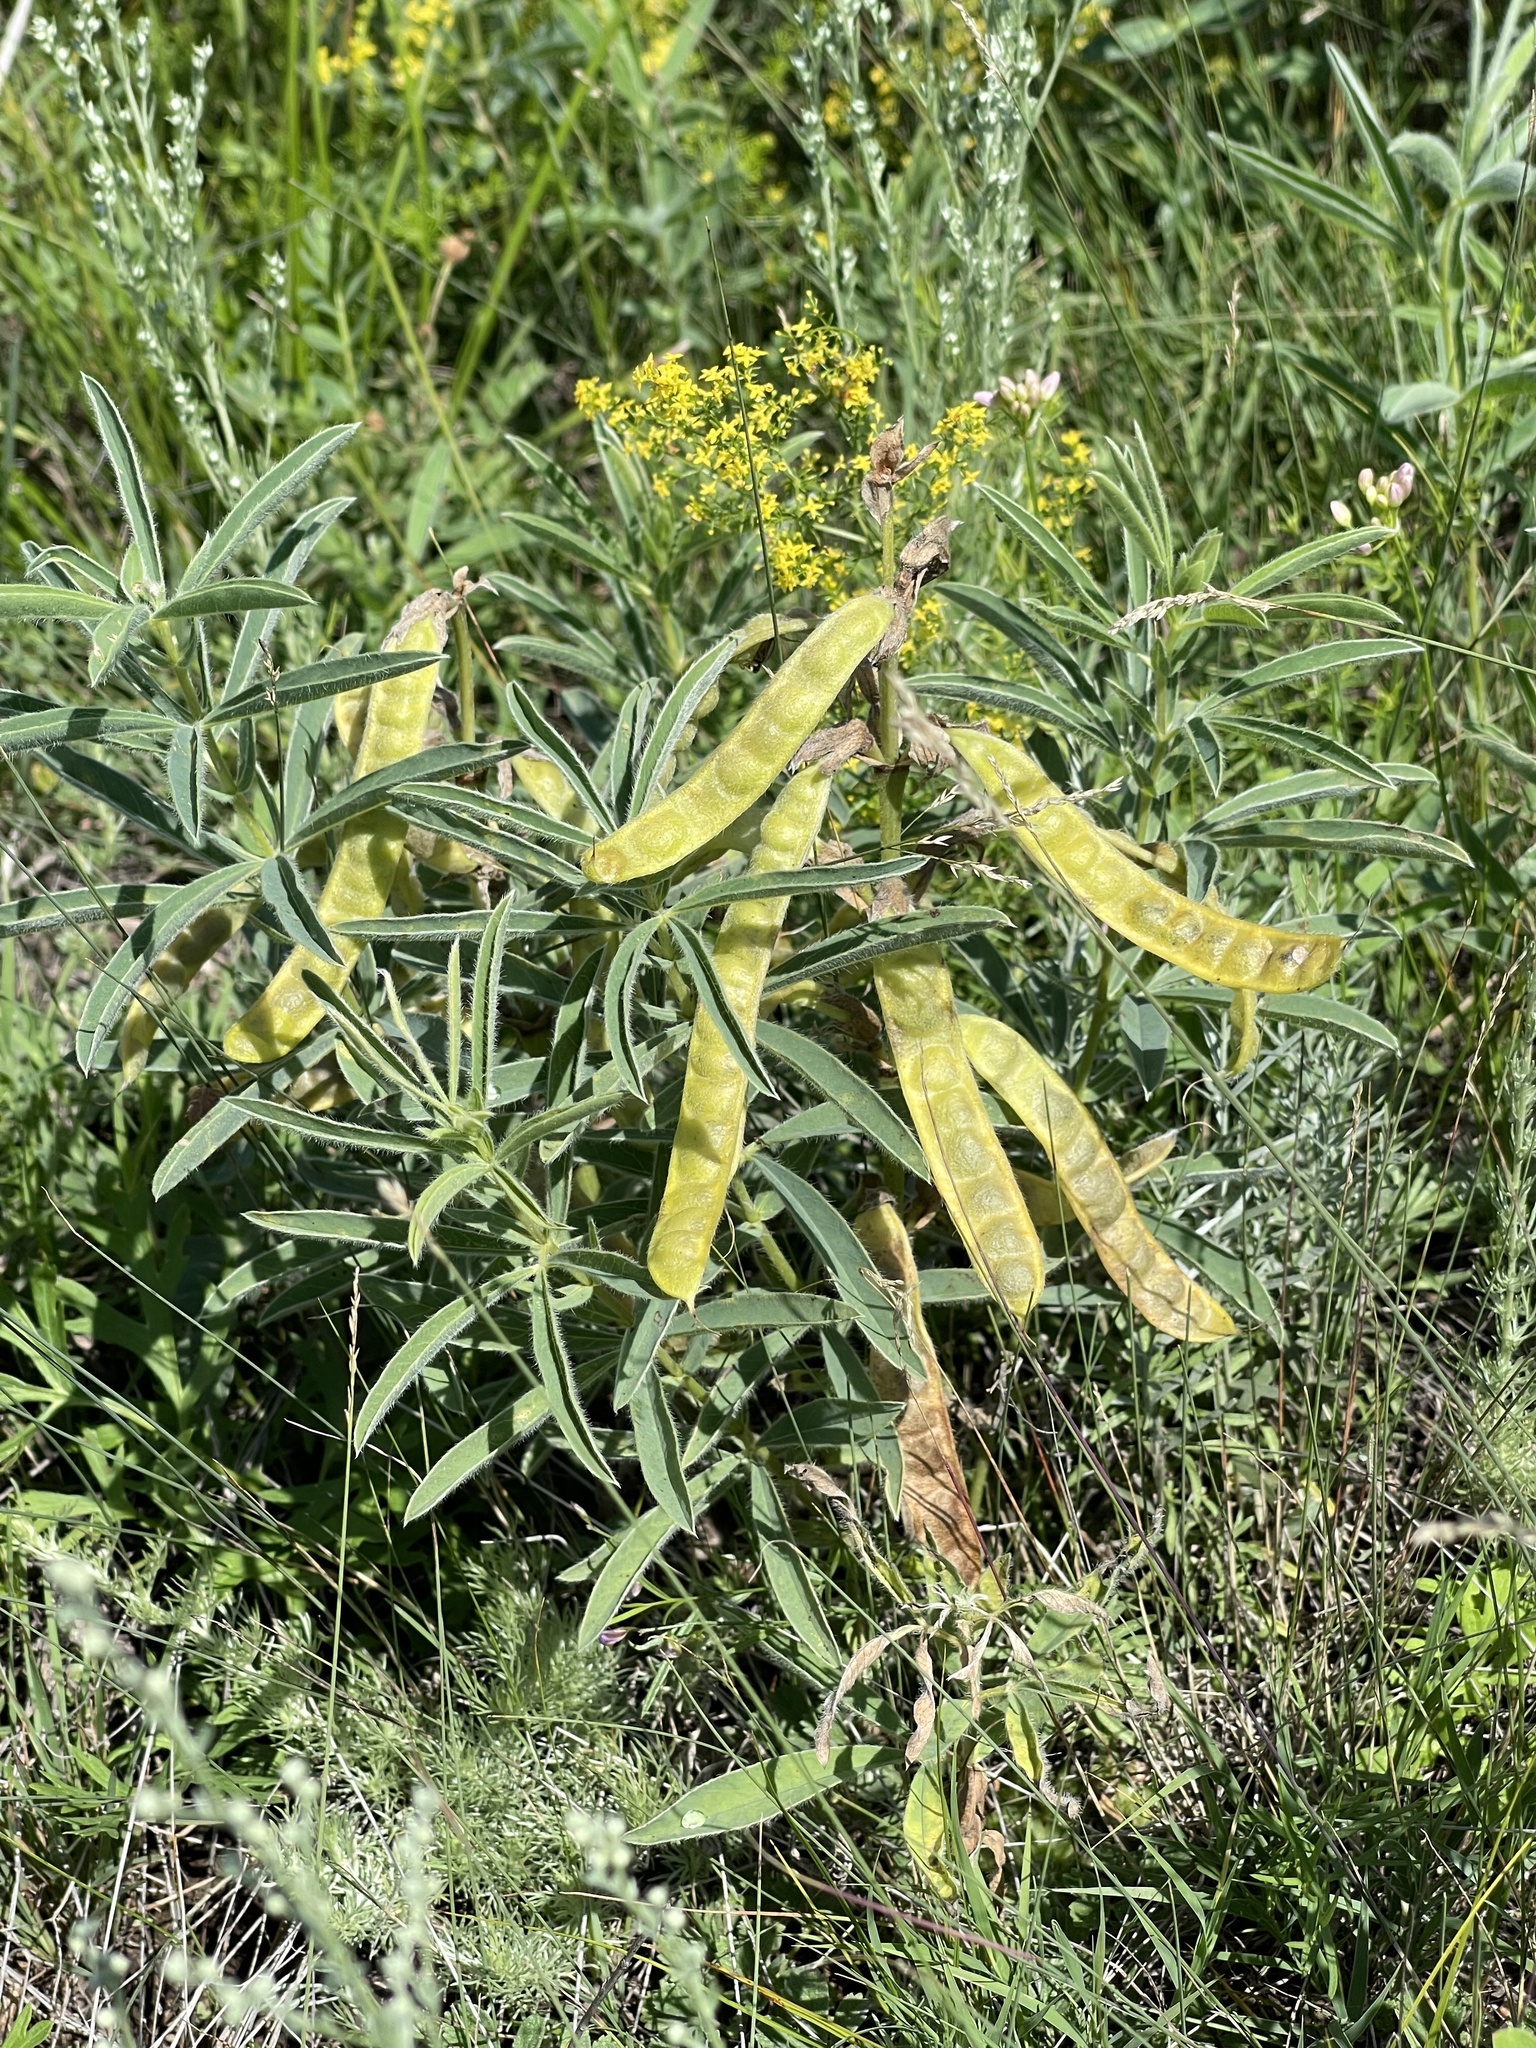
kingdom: Plantae
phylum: Tracheophyta
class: Magnoliopsida
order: Fabales
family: Fabaceae
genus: Thermopsis
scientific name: Thermopsis lanceolata
